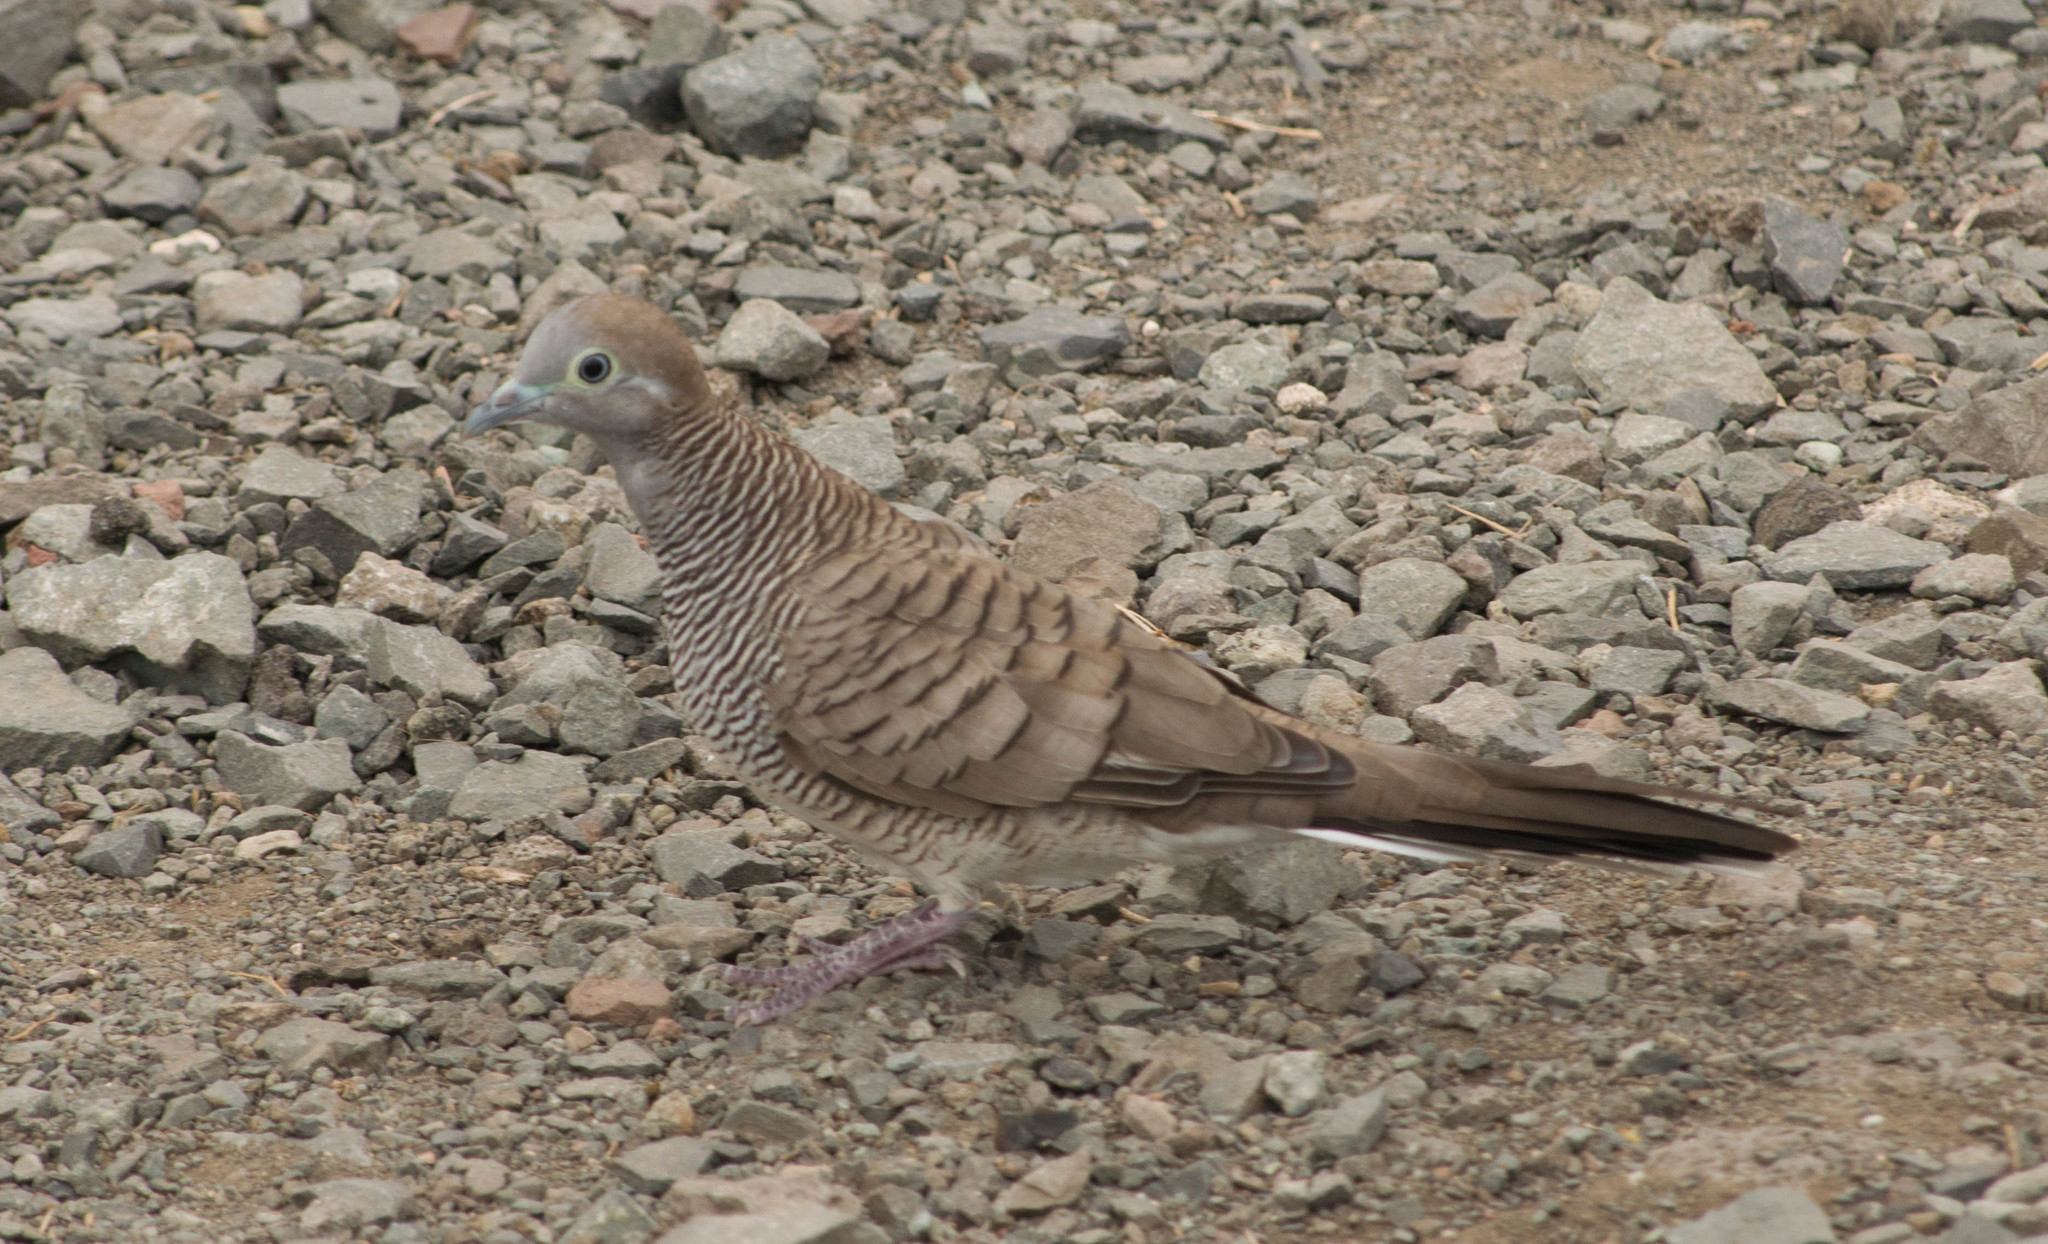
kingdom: Animalia
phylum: Chordata
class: Aves
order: Columbiformes
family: Columbidae
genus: Geopelia
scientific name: Geopelia striata
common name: Zebra dove
